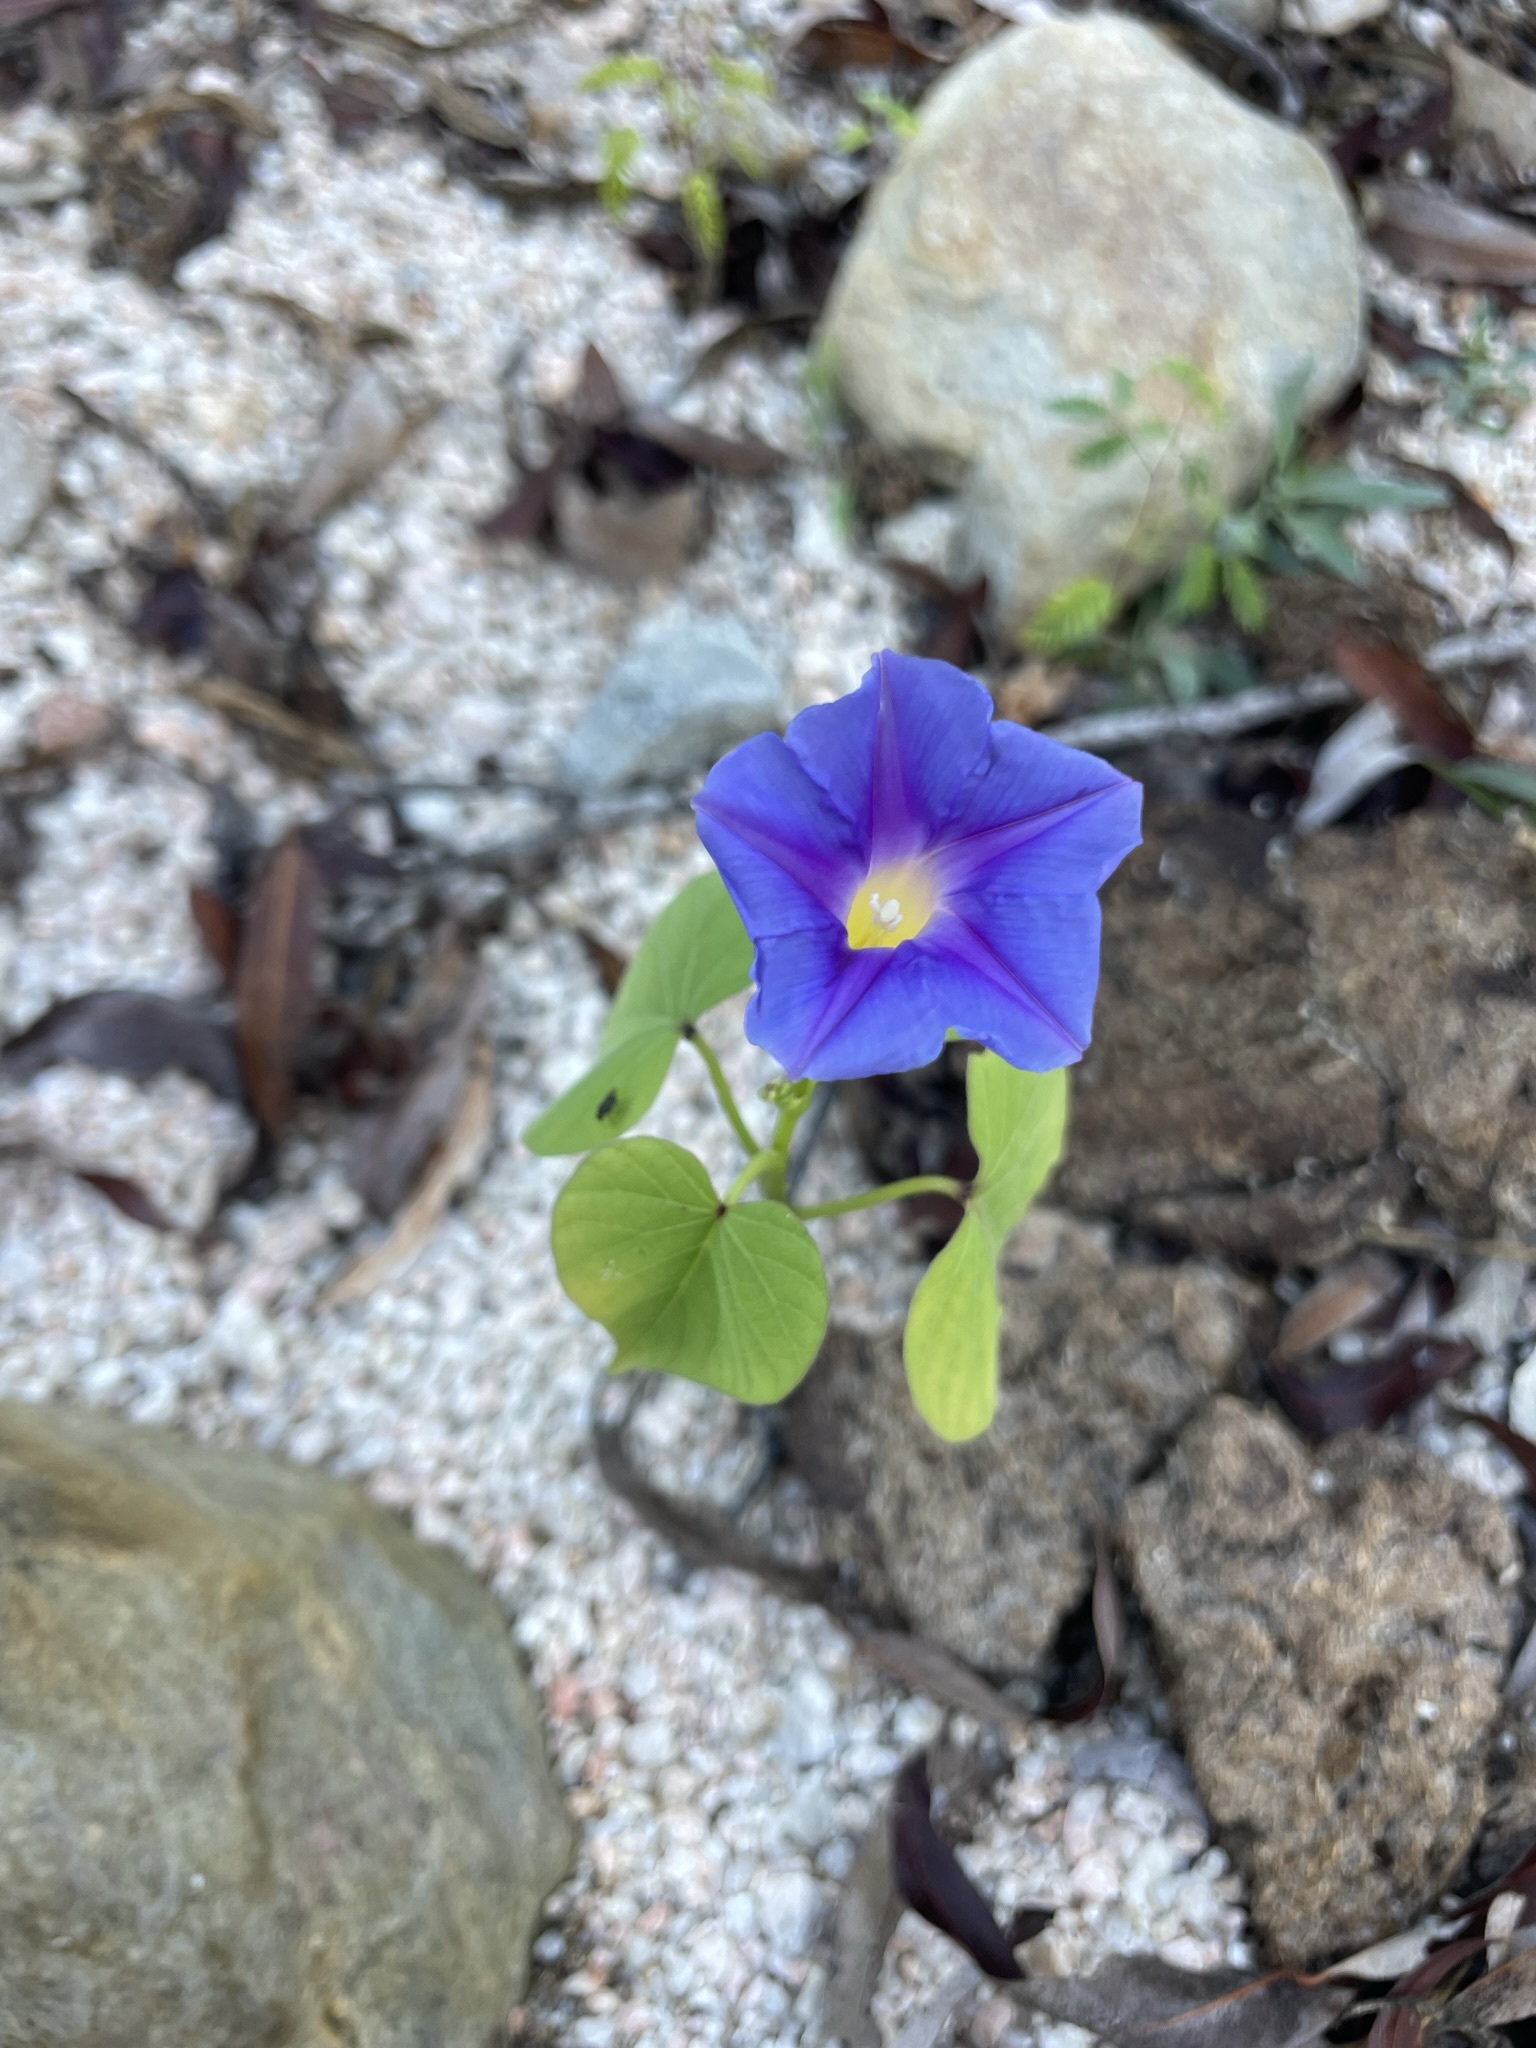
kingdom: Plantae
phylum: Tracheophyta
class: Magnoliopsida
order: Solanales
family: Convolvulaceae
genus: Ipomoea
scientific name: Ipomoea parasitica
